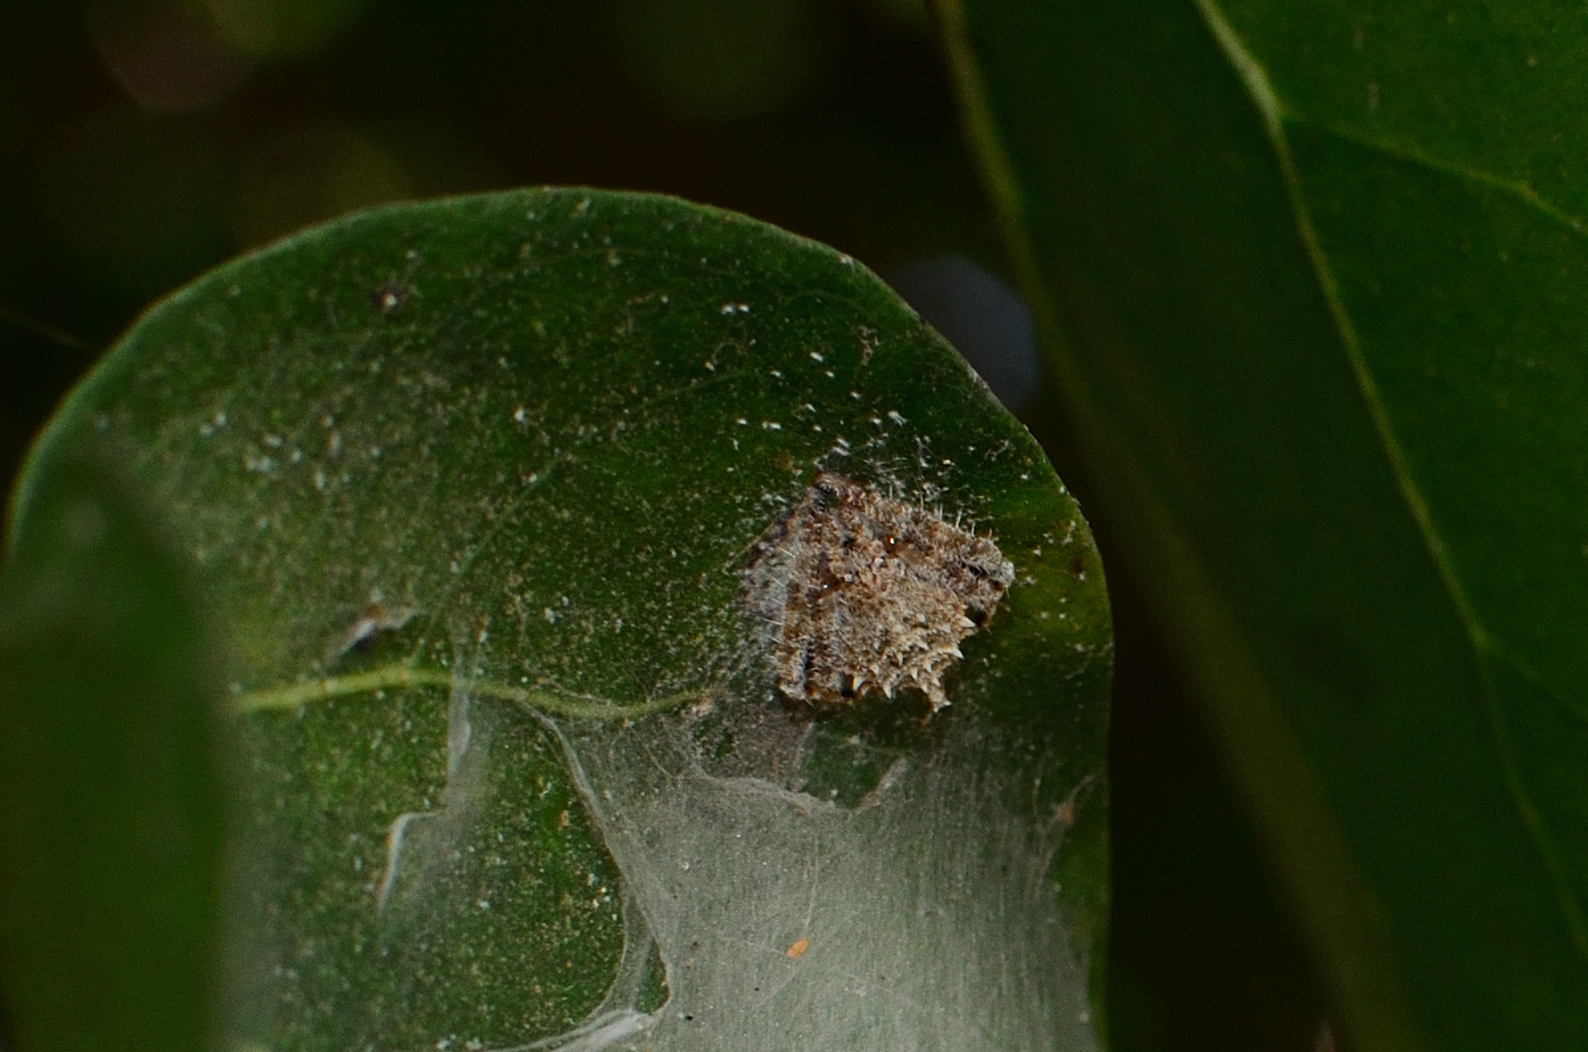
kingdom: Animalia
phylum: Arthropoda
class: Arachnida
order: Araneae
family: Araneidae
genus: Eriovixia
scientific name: Eriovixia laglaizei
